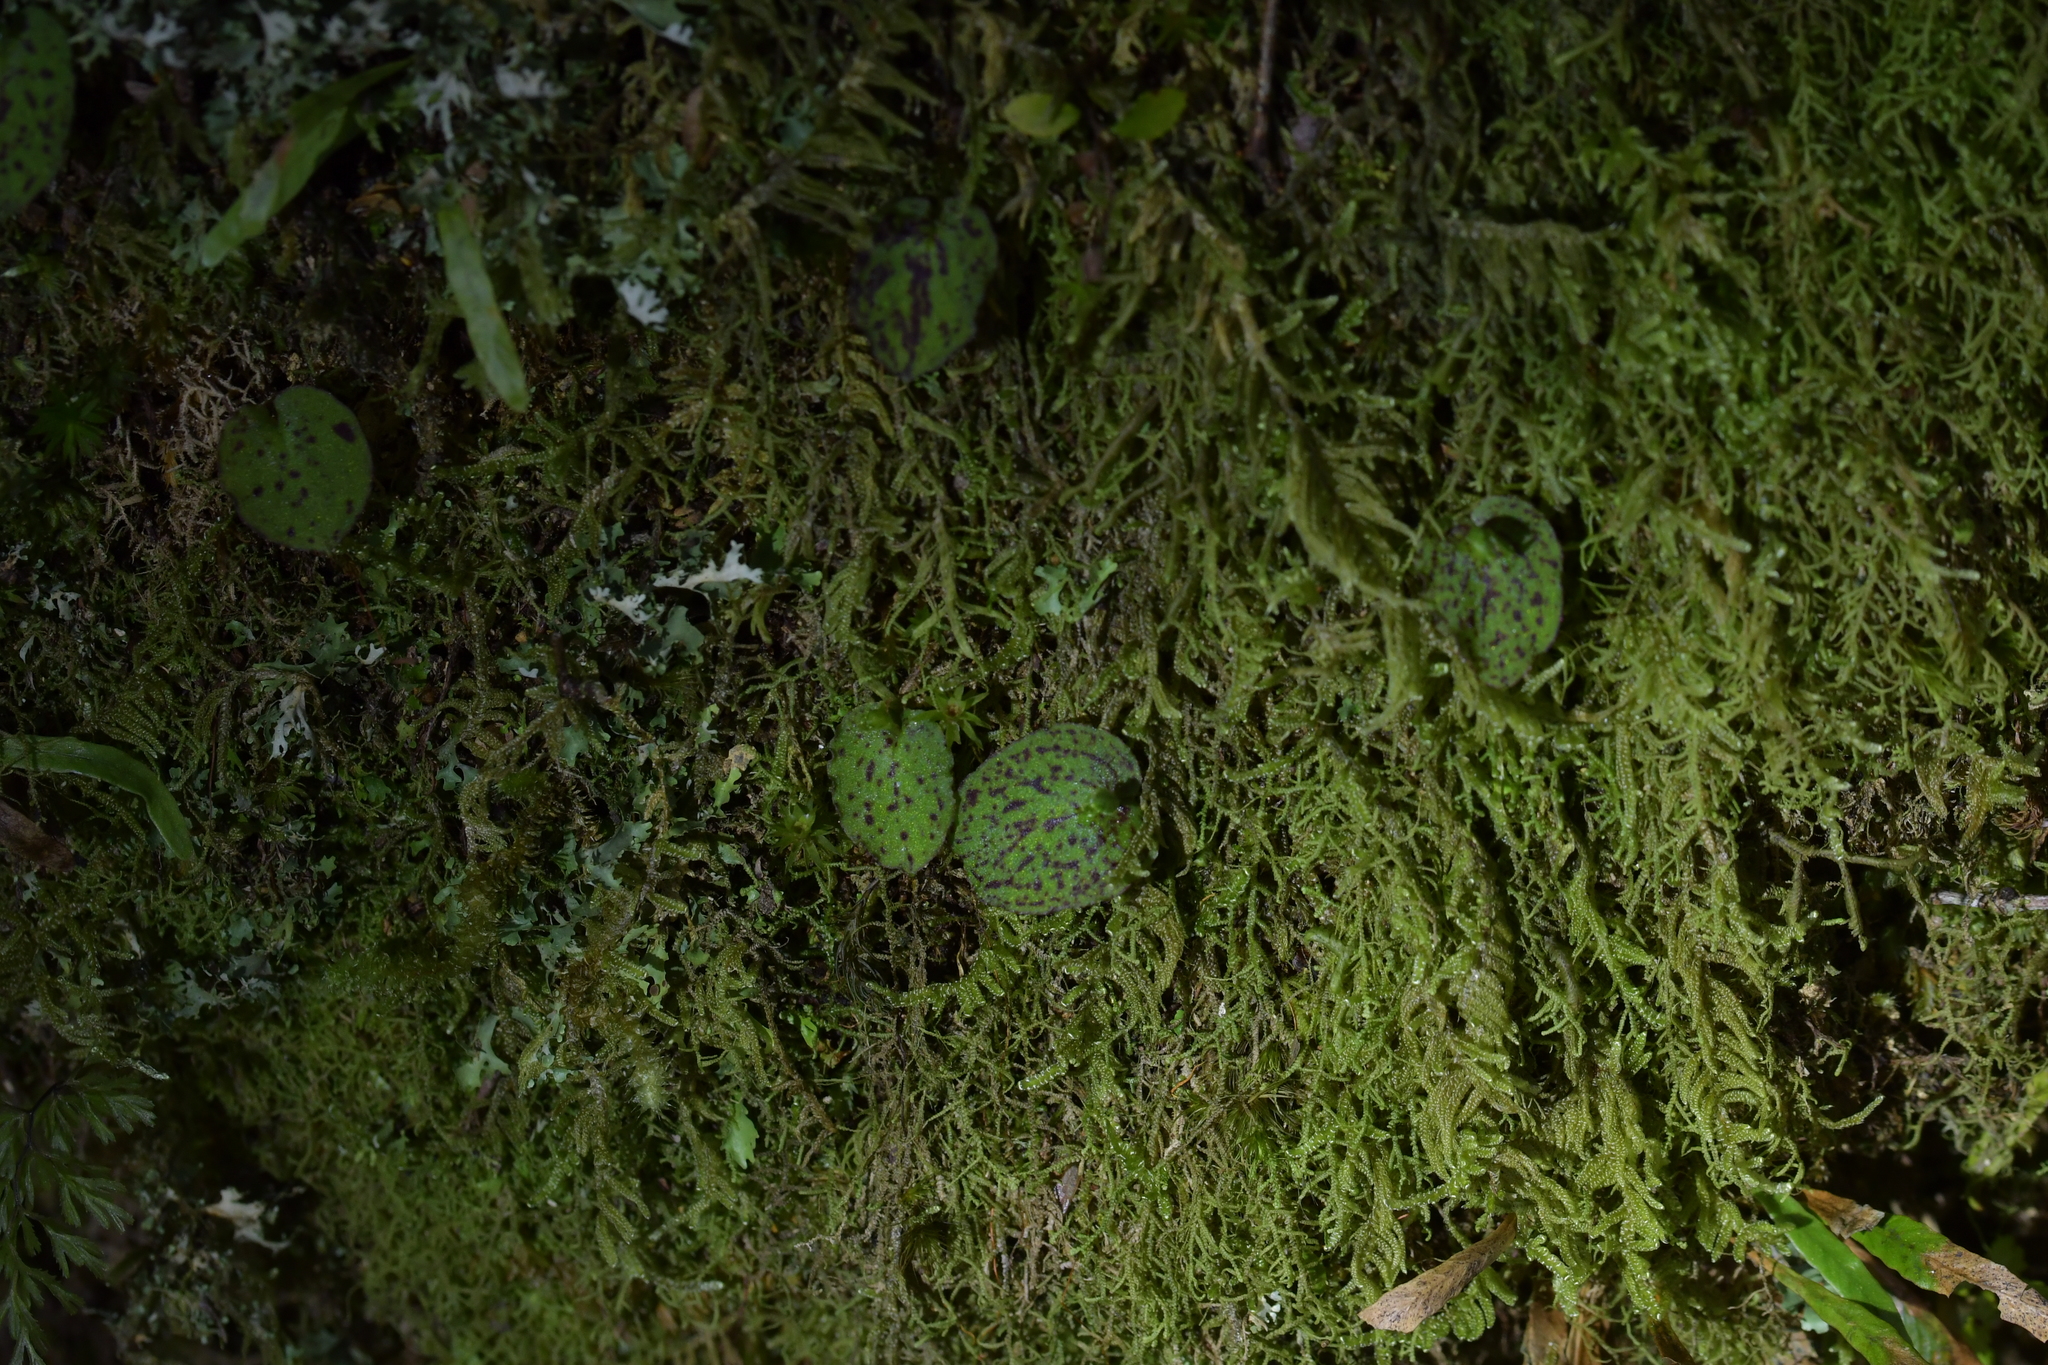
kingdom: Plantae
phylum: Tracheophyta
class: Liliopsida
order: Asparagales
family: Orchidaceae
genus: Corybas
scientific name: Corybas oblongus
